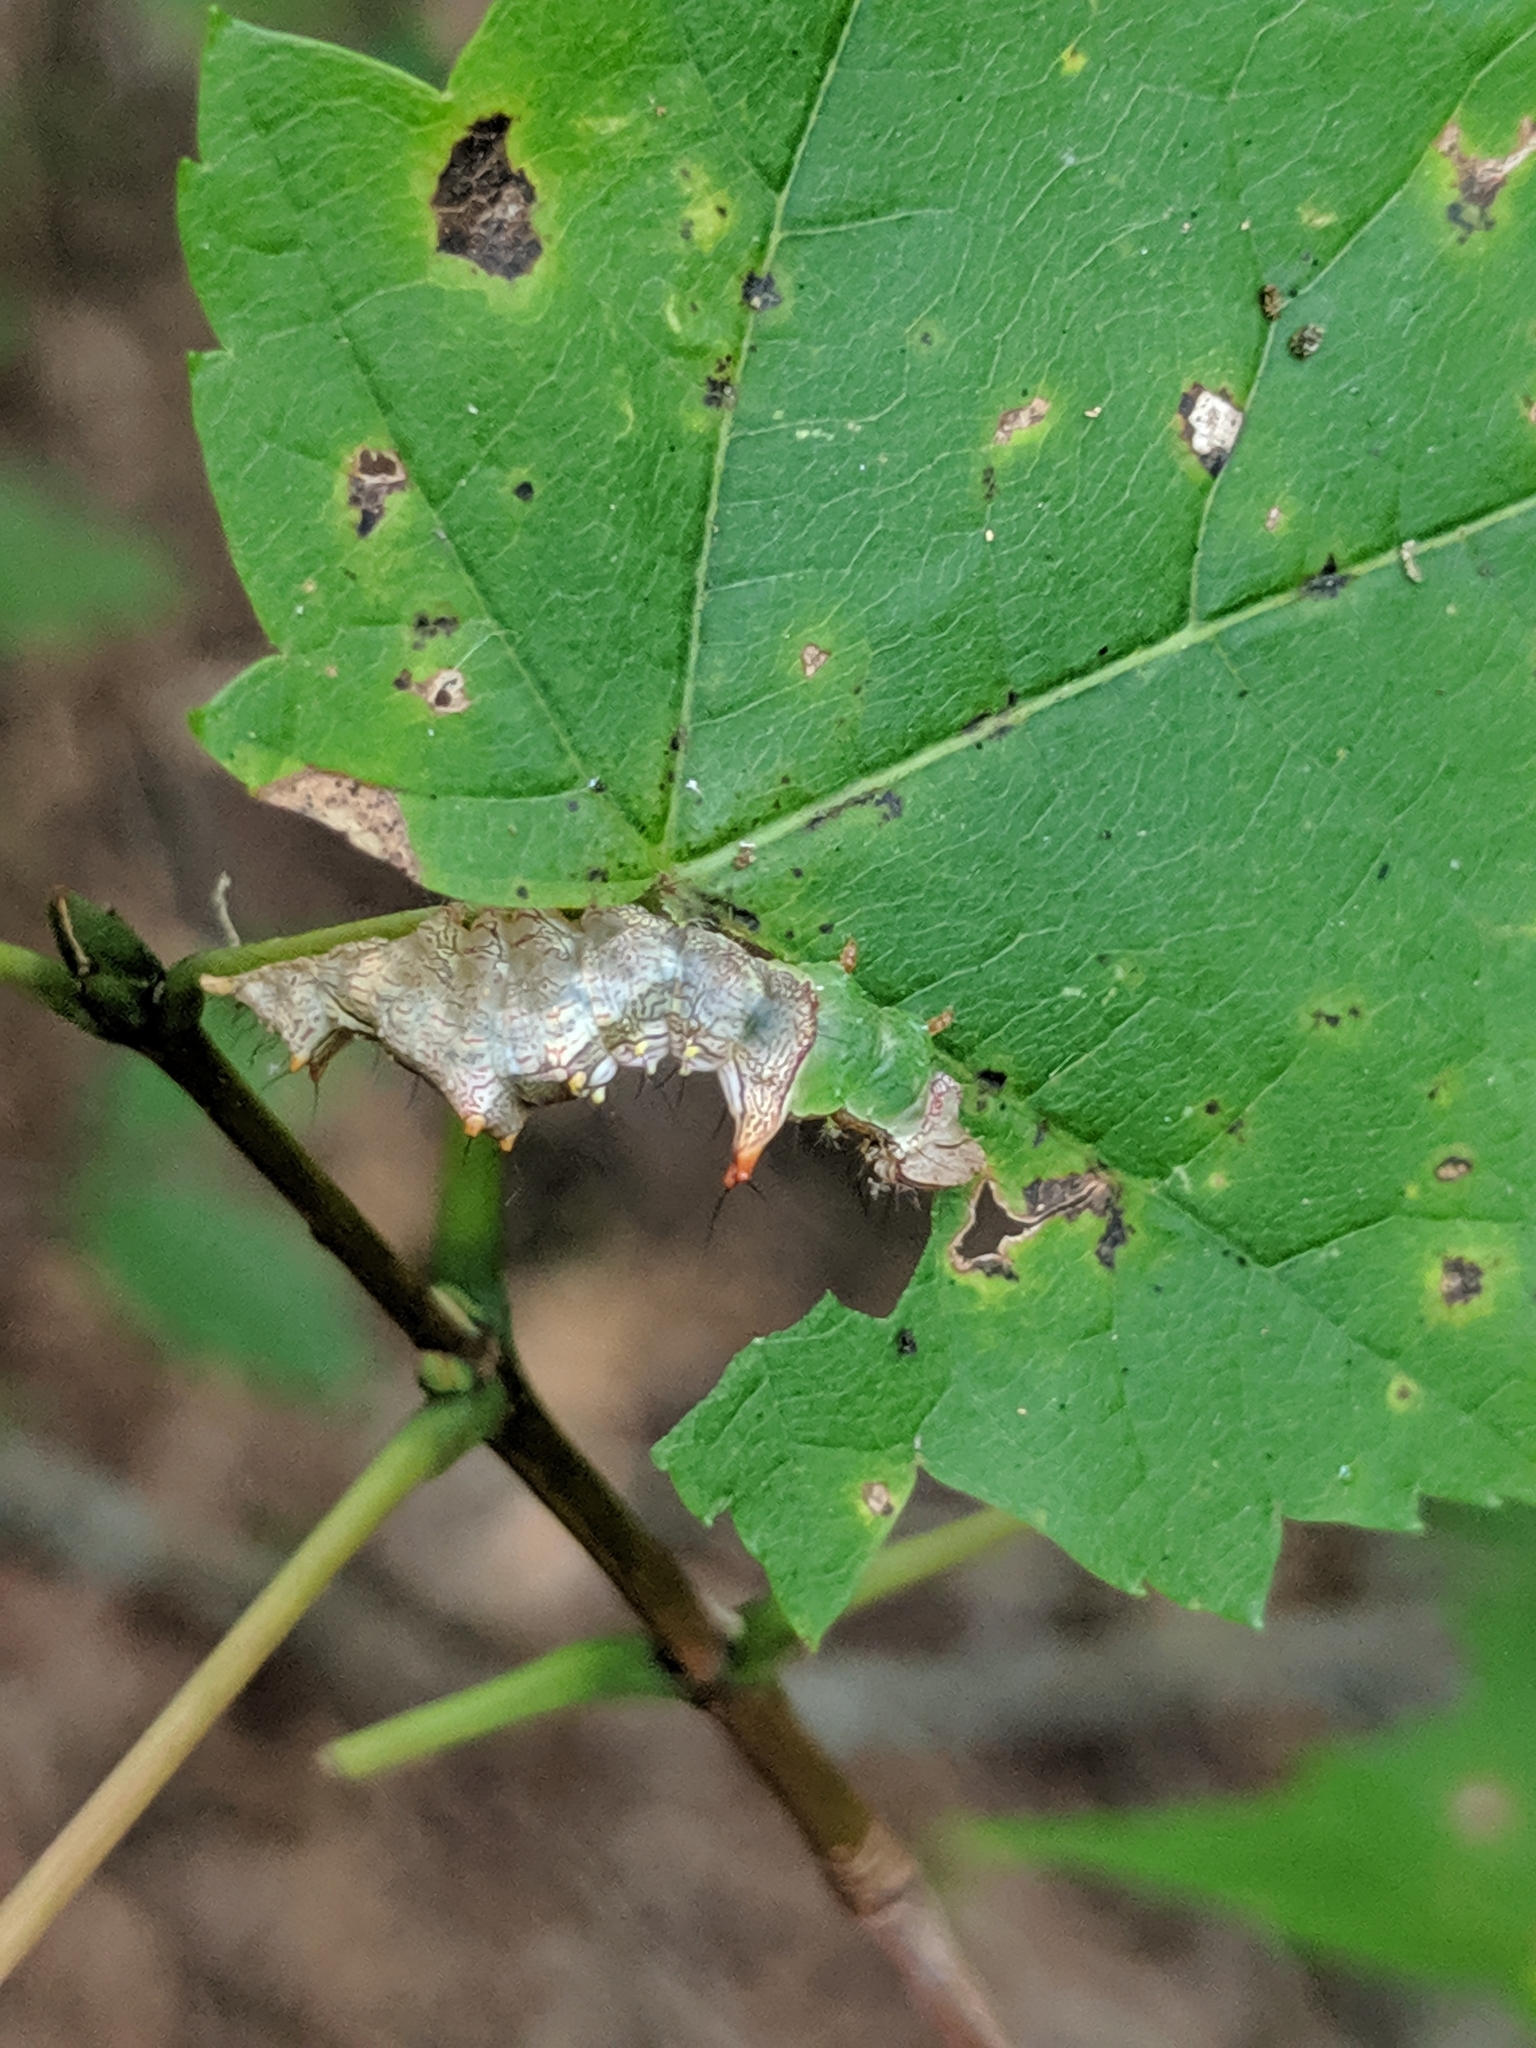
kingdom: Animalia
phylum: Arthropoda
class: Insecta
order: Lepidoptera
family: Notodontidae
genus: Schizura
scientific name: Schizura ipomaeae
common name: Morning-glory prominent
